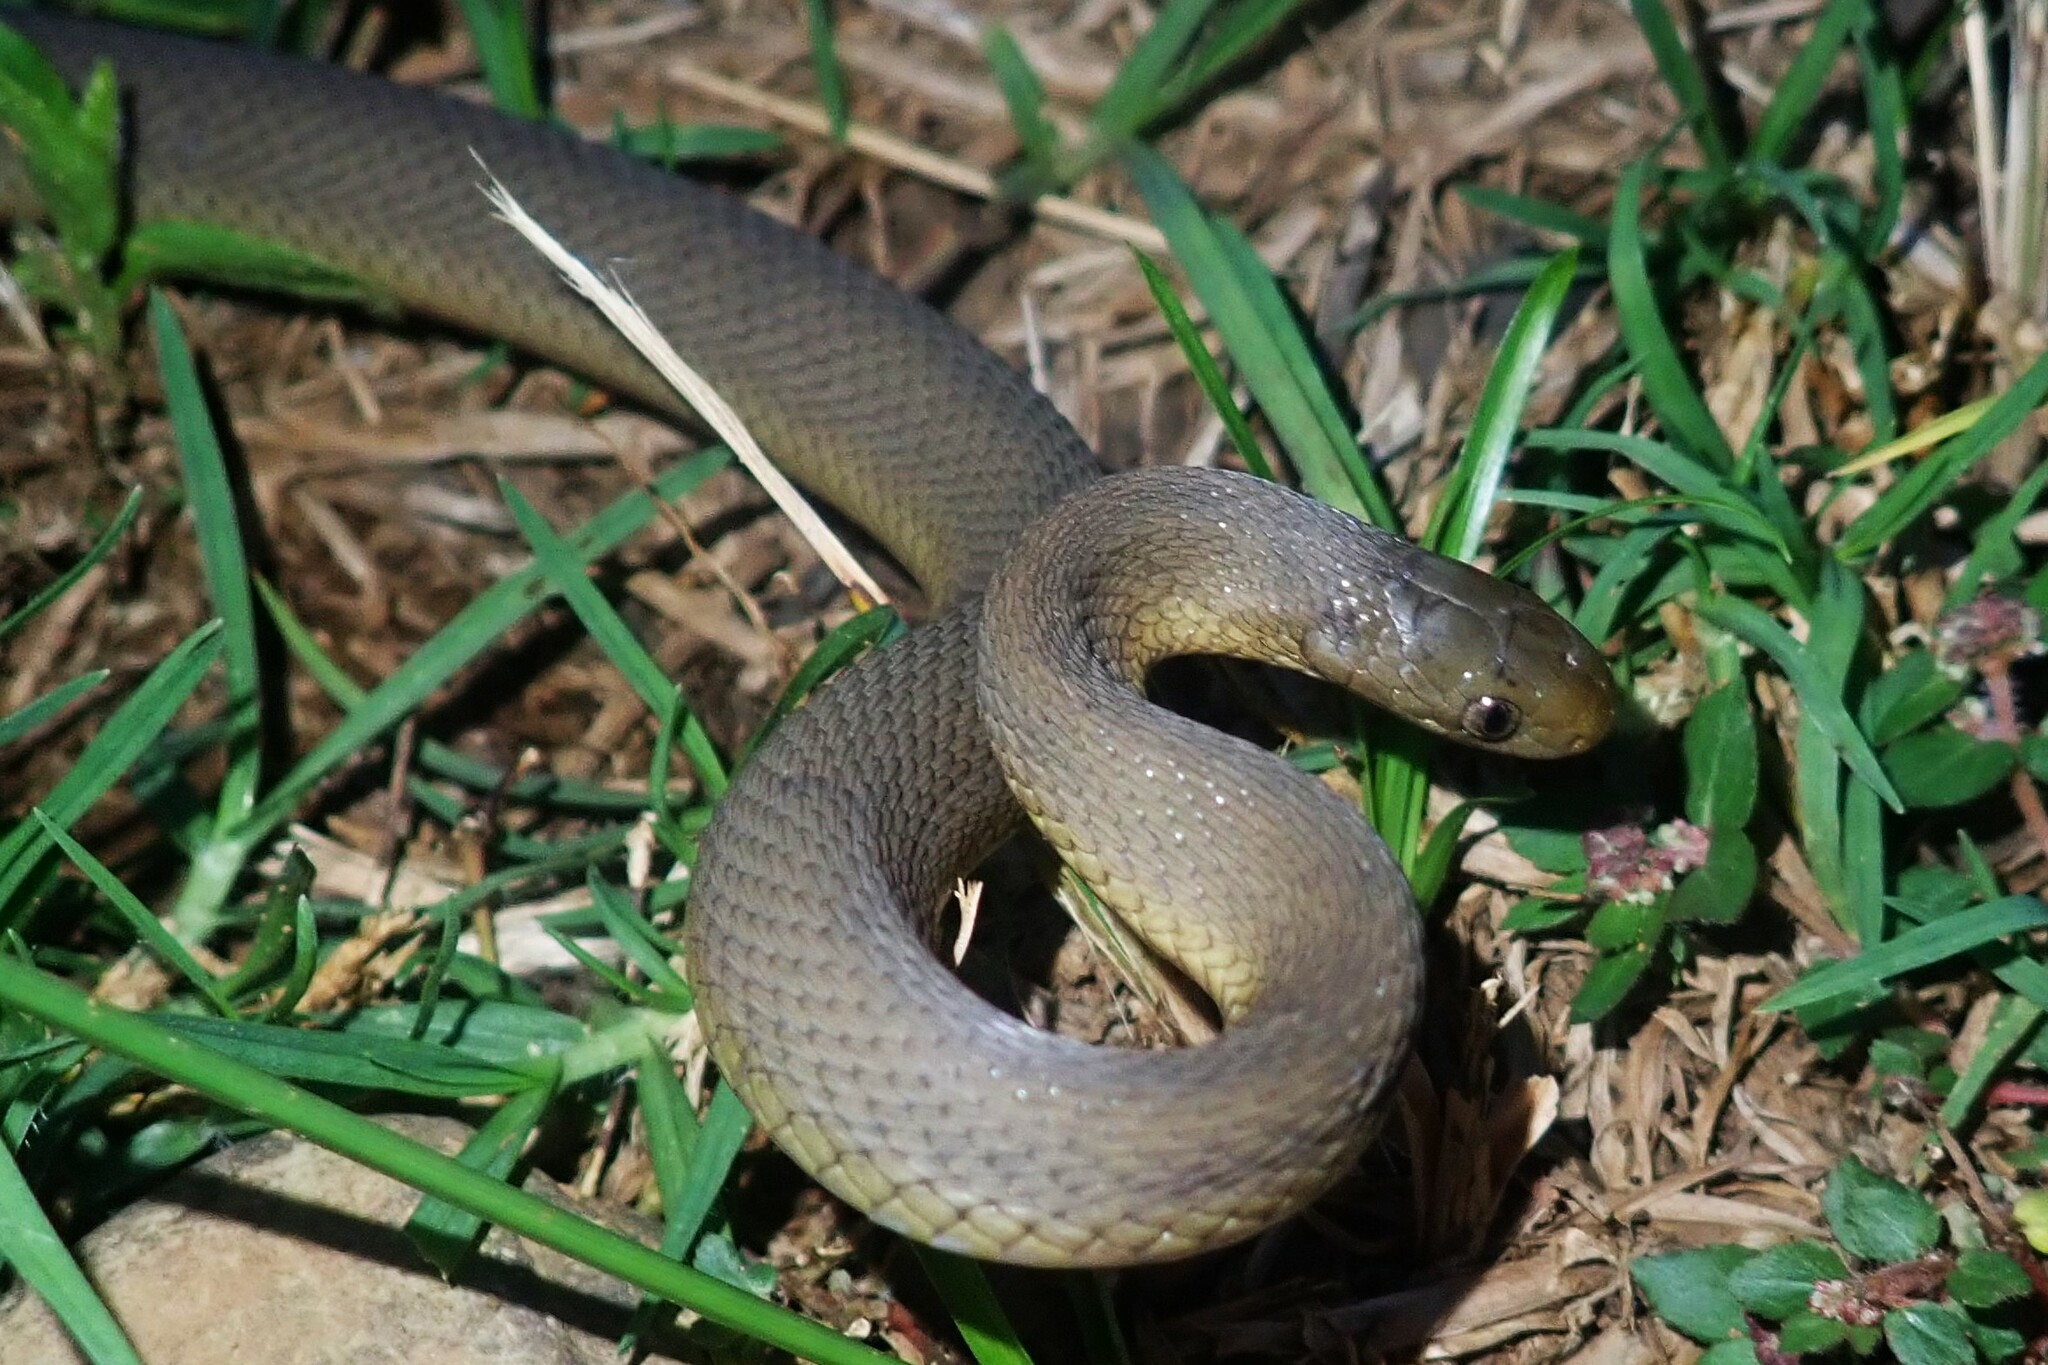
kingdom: Animalia
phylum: Chordata
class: Squamata
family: Colubridae
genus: Dasypeltis
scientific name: Dasypeltis inornata
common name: Southern brown egg eater
